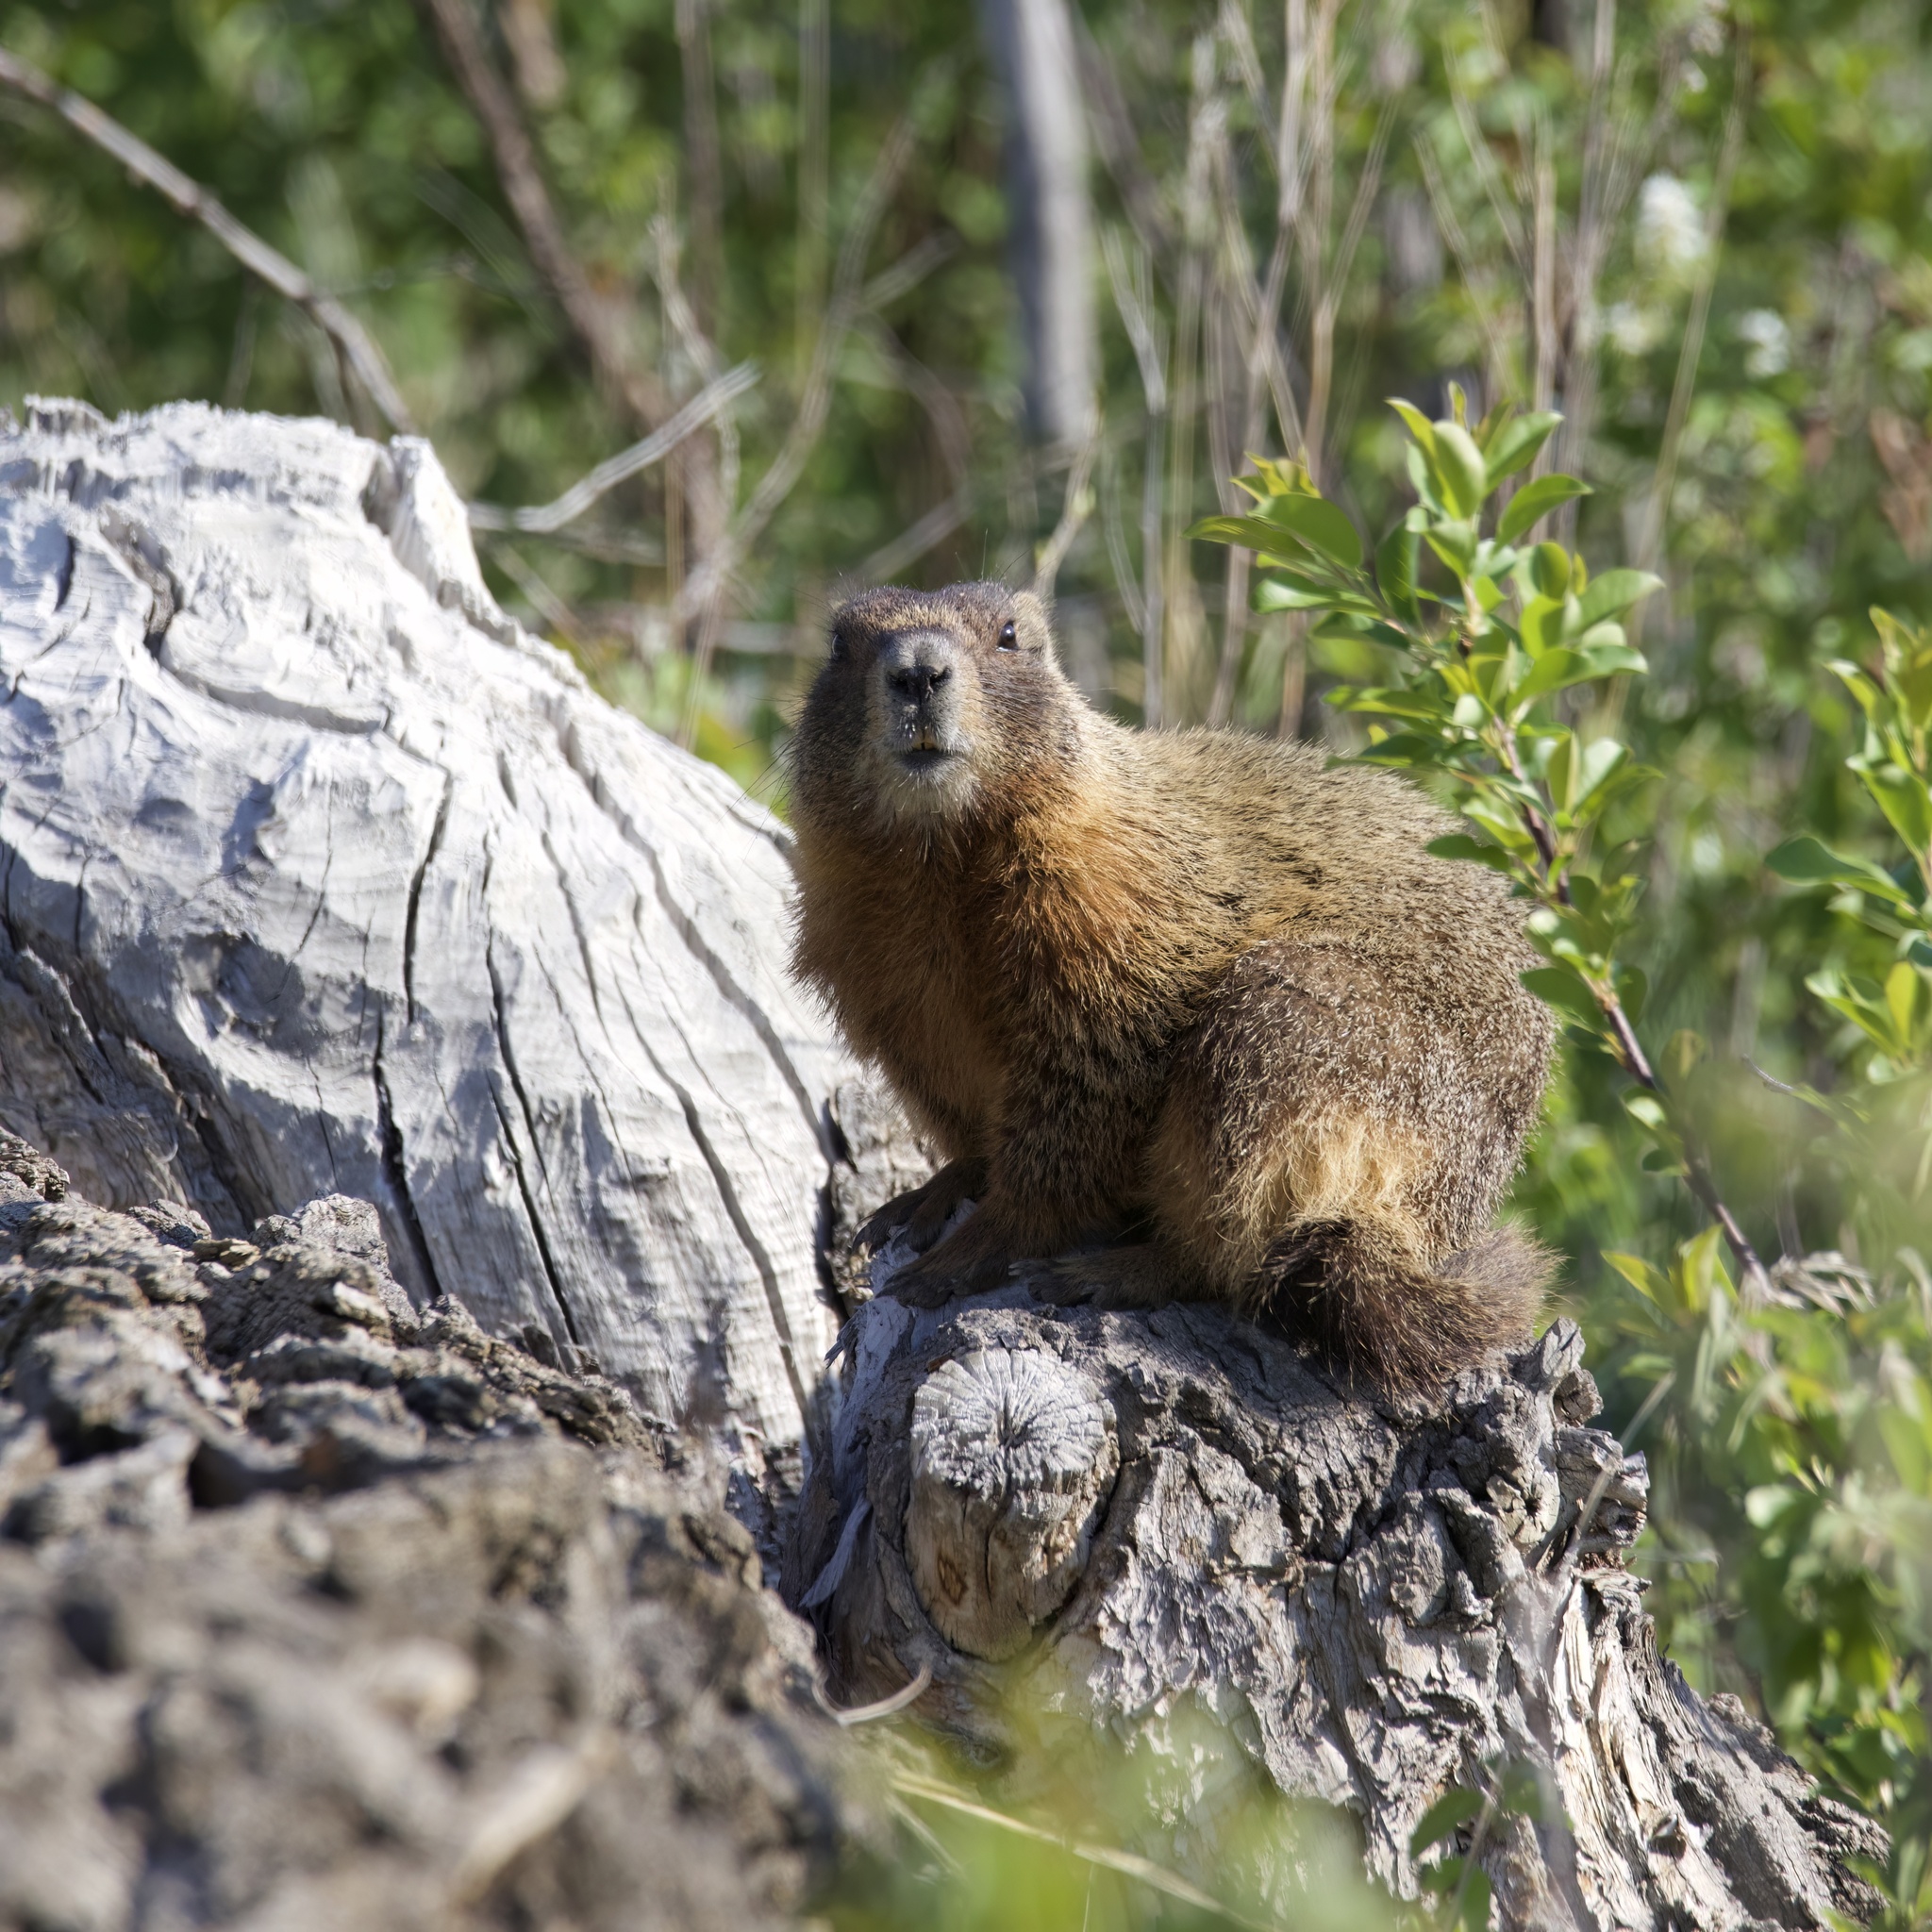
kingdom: Animalia
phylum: Chordata
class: Mammalia
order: Rodentia
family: Sciuridae
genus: Marmota
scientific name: Marmota flaviventris
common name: Yellow-bellied marmot
